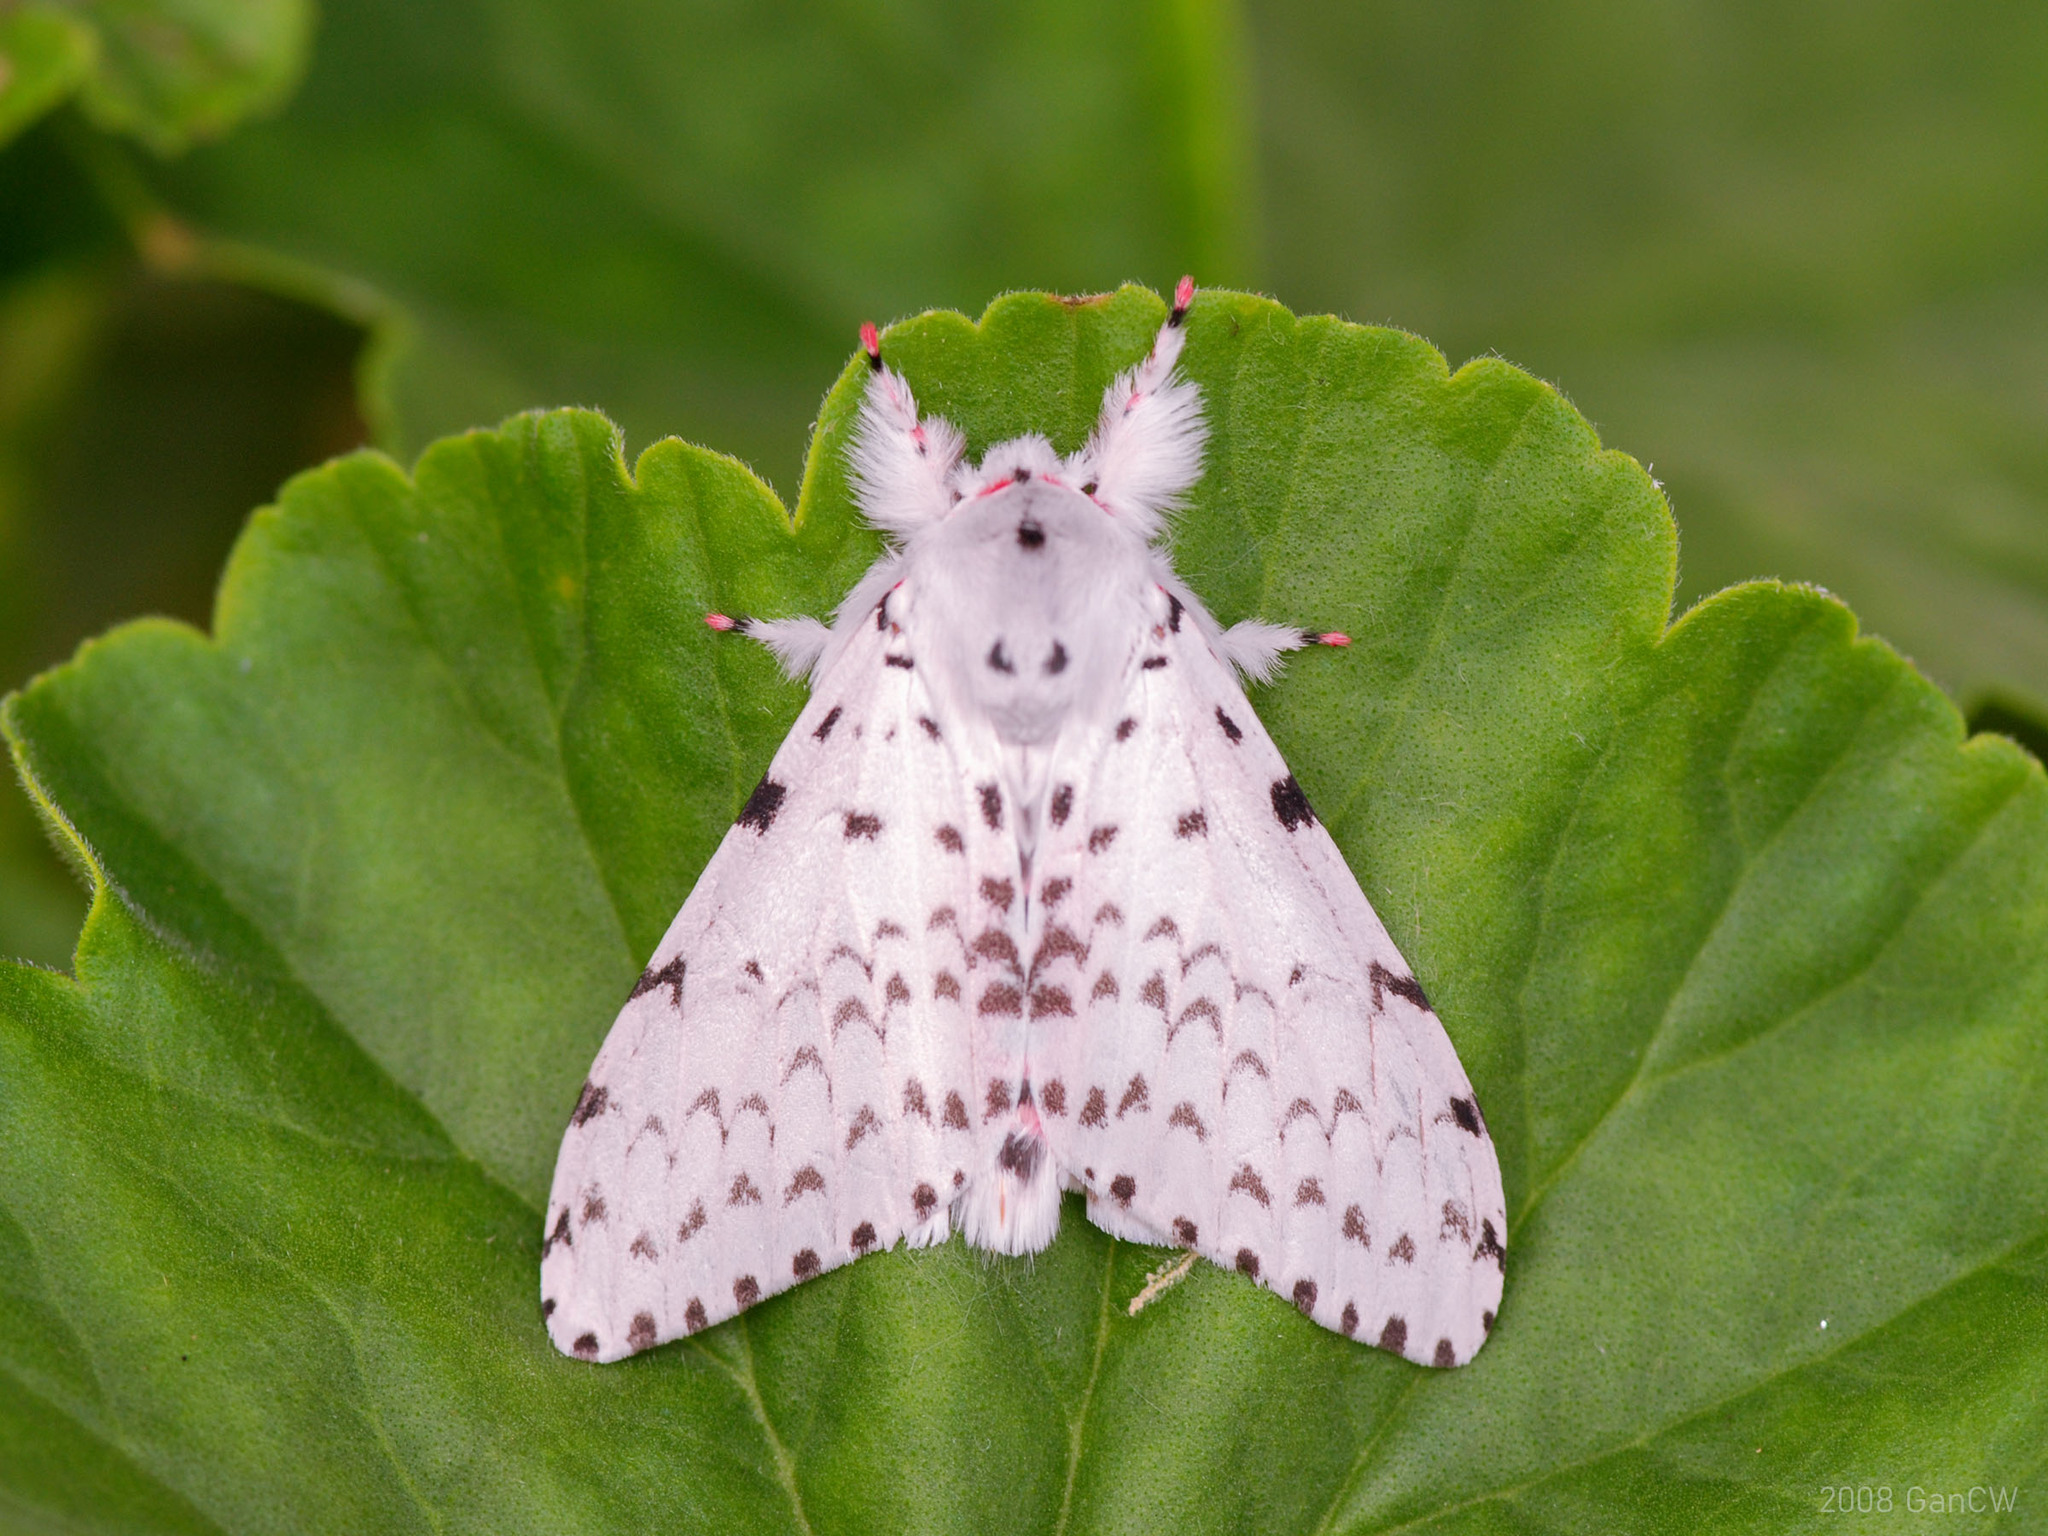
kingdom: Animalia
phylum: Arthropoda
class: Insecta
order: Lepidoptera
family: Erebidae
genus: Lymantria
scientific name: Lymantria marginalis
